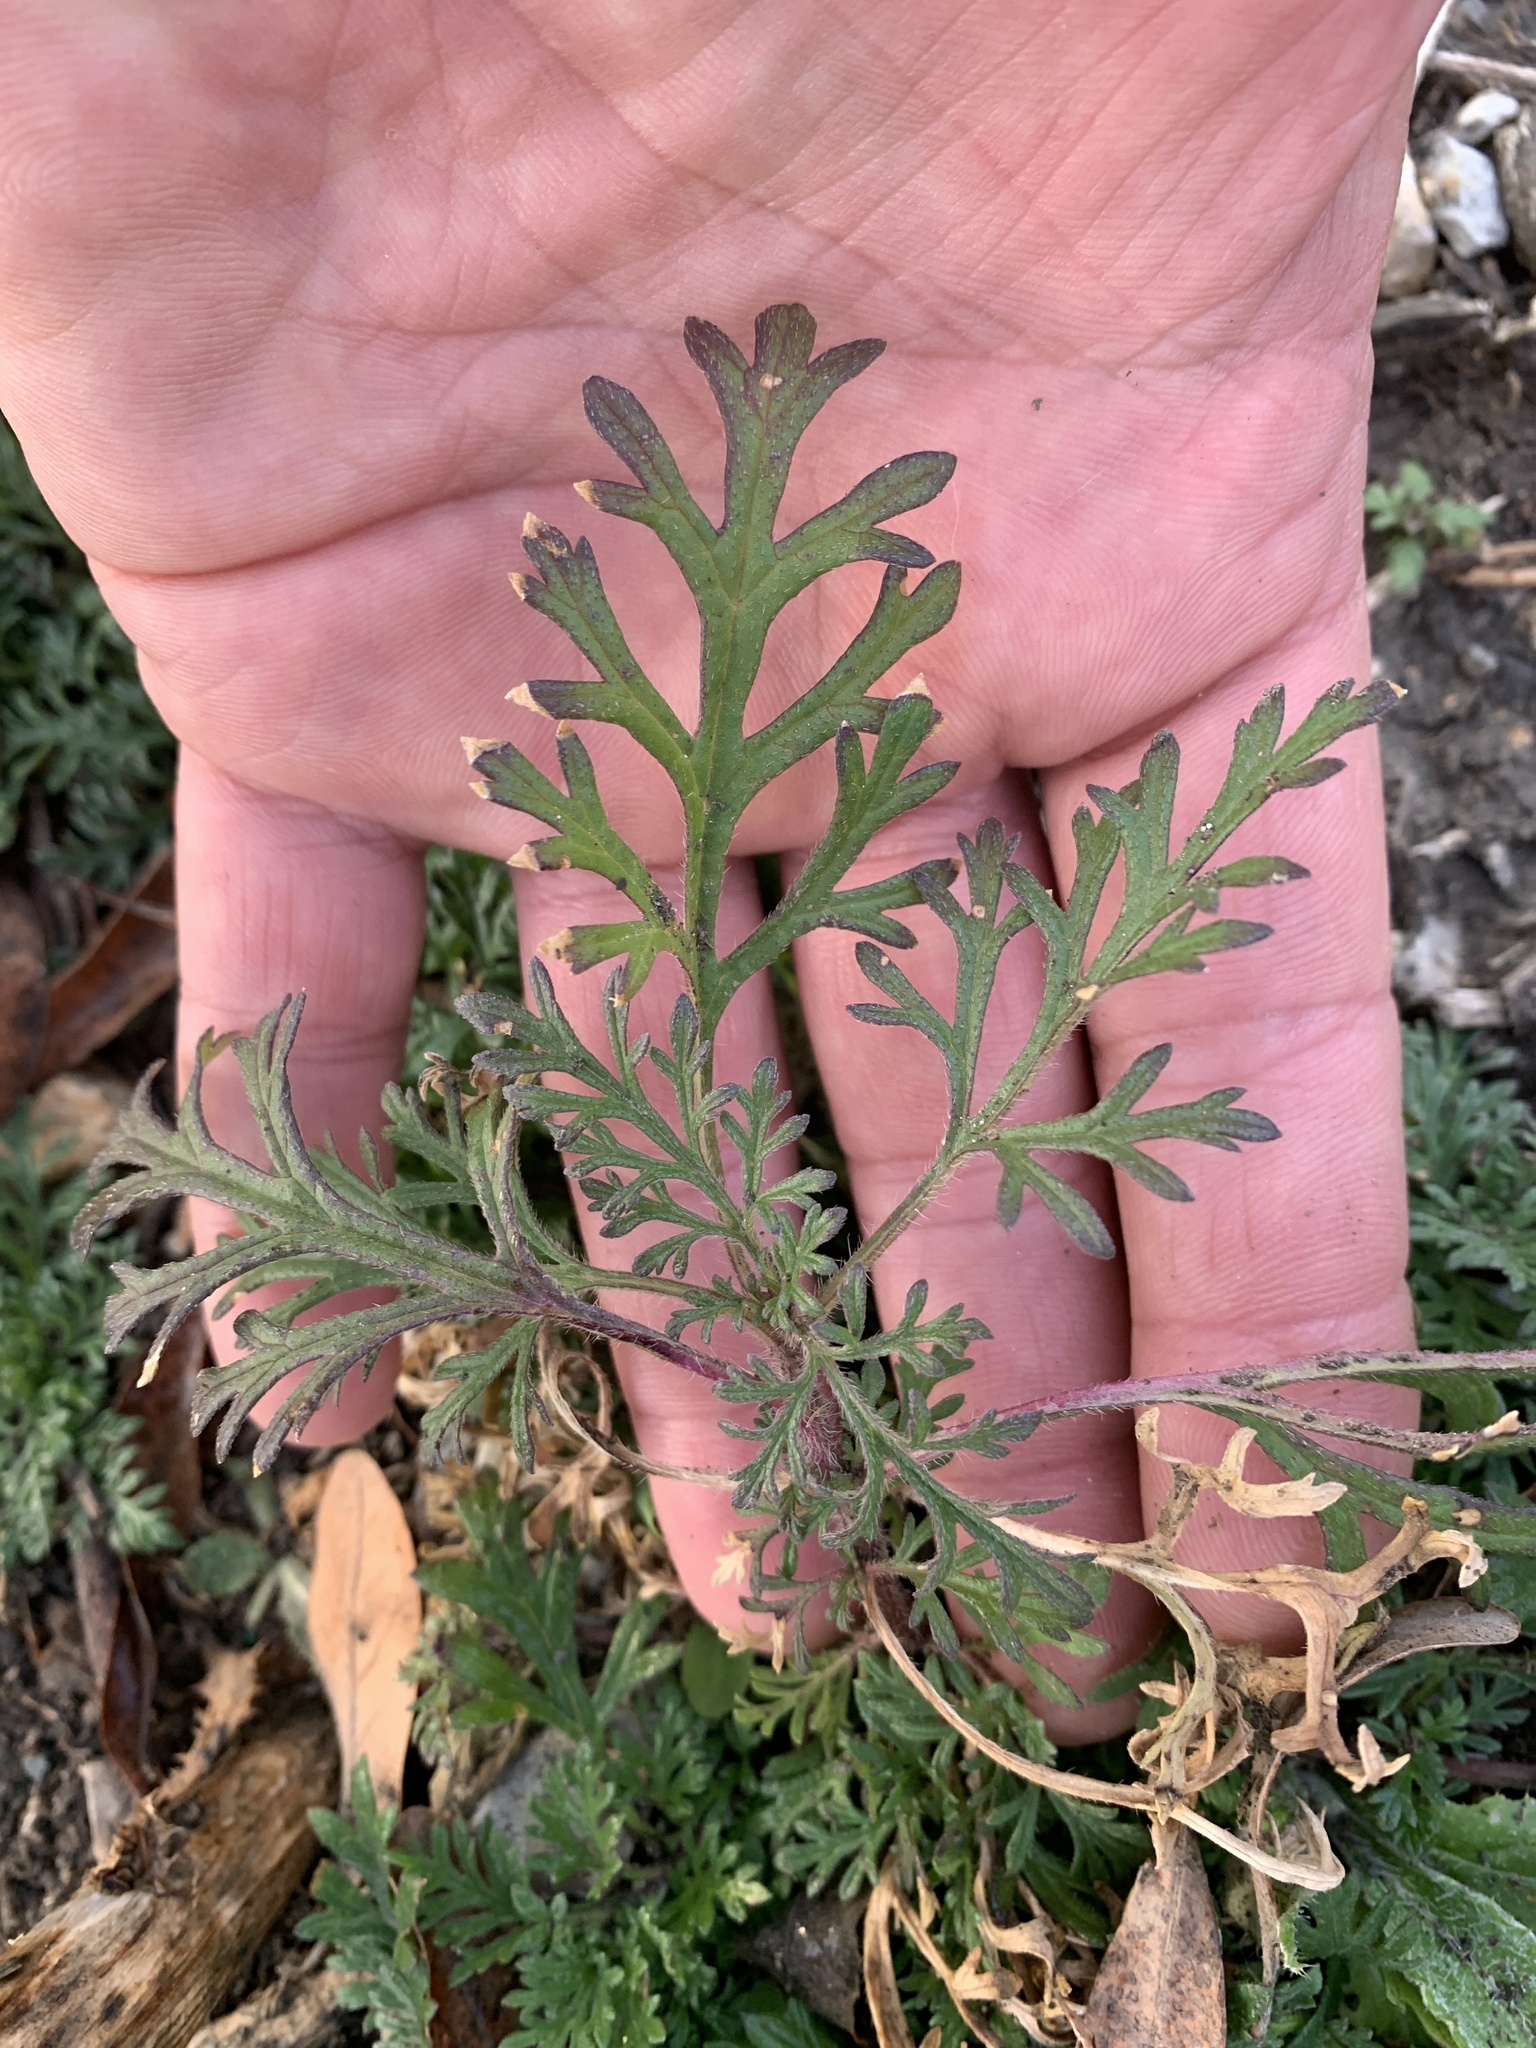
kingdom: Plantae
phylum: Tracheophyta
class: Magnoliopsida
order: Lamiales
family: Verbenaceae
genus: Verbena
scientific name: Verbena bipinnatifida
